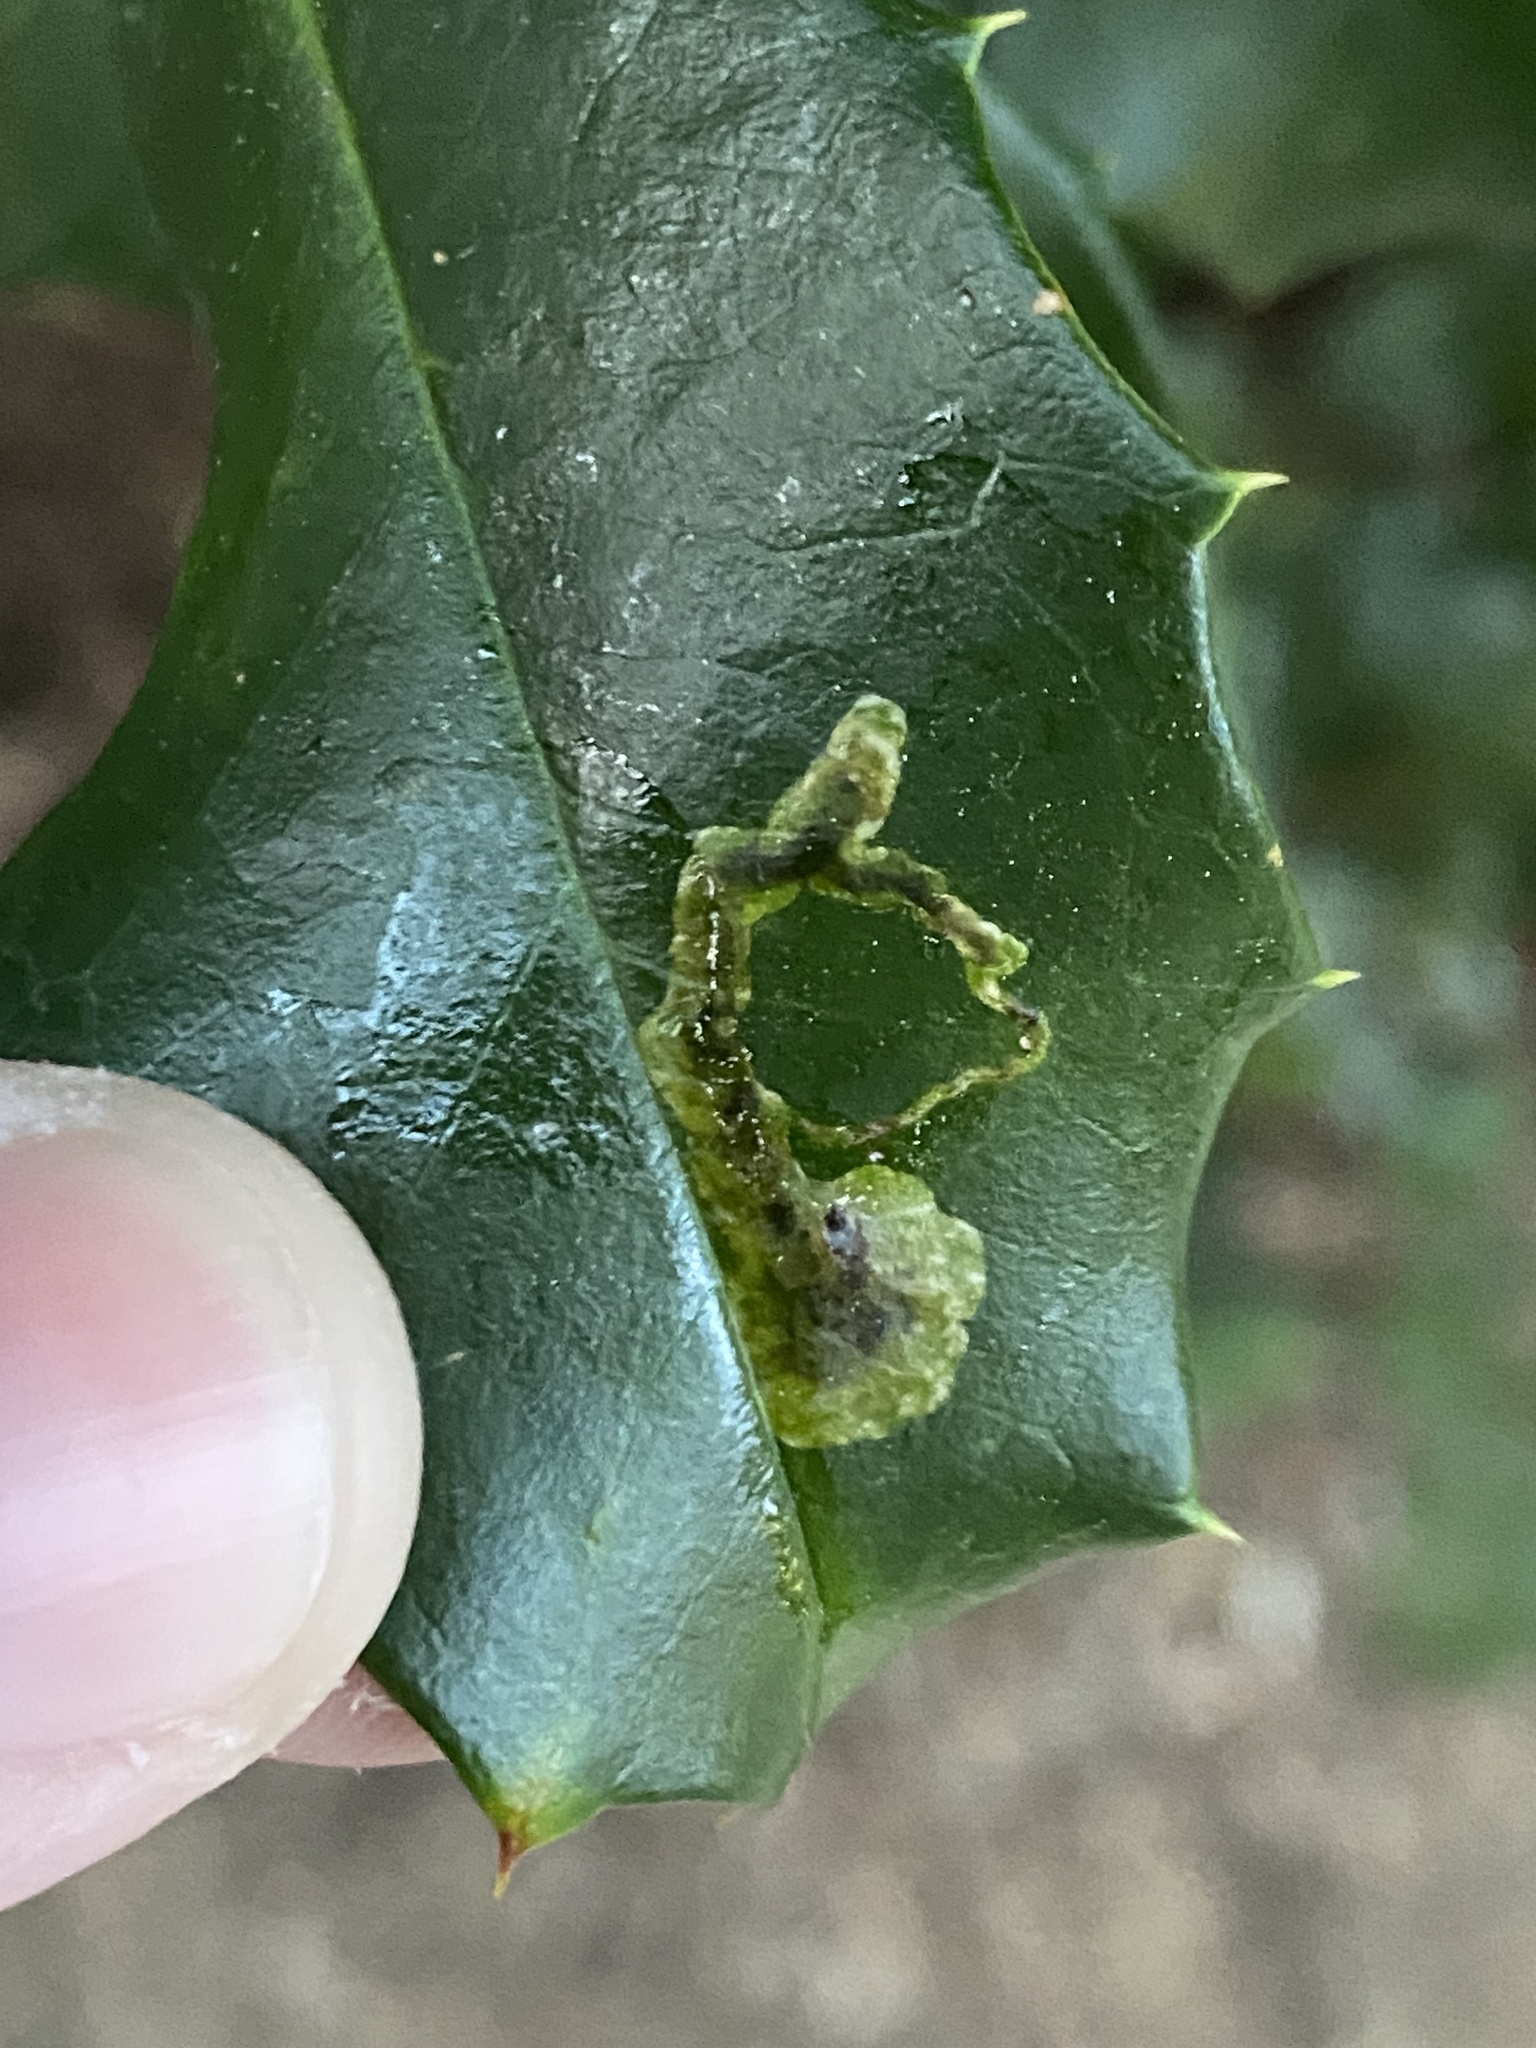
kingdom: Animalia
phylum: Arthropoda
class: Insecta
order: Diptera
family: Agromyzidae
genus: Phytomyza
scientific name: Phytomyza ilicicola
